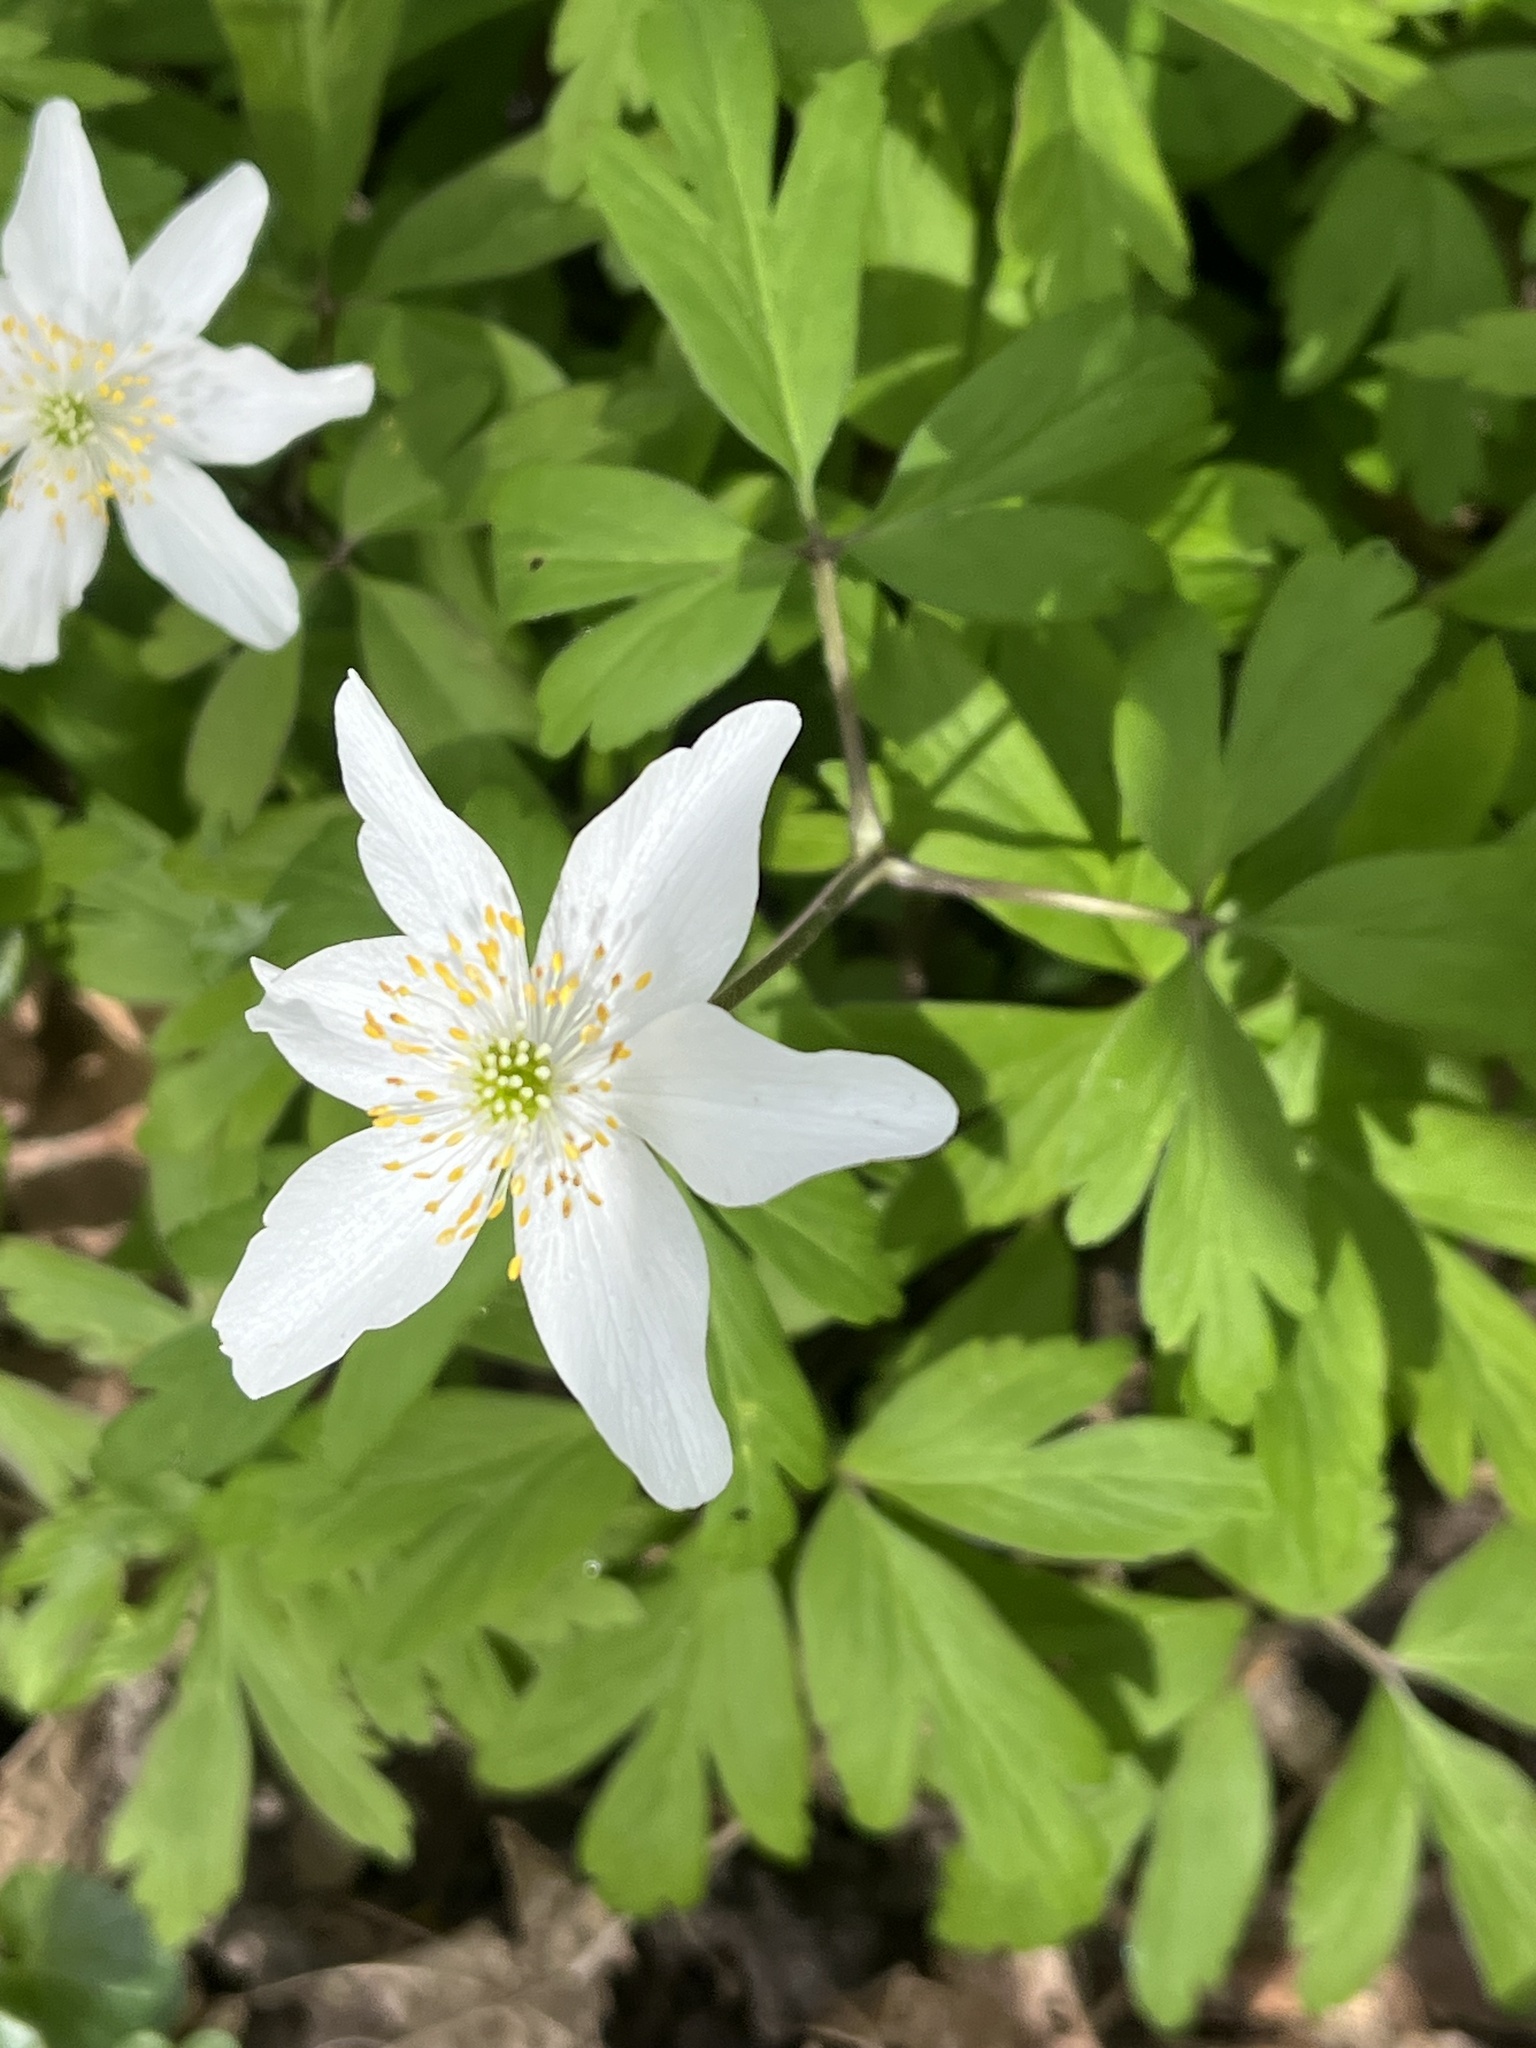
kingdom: Plantae
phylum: Tracheophyta
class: Magnoliopsida
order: Ranunculales
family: Ranunculaceae
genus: Anemone
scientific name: Anemone nemorosa
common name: Wood anemone
